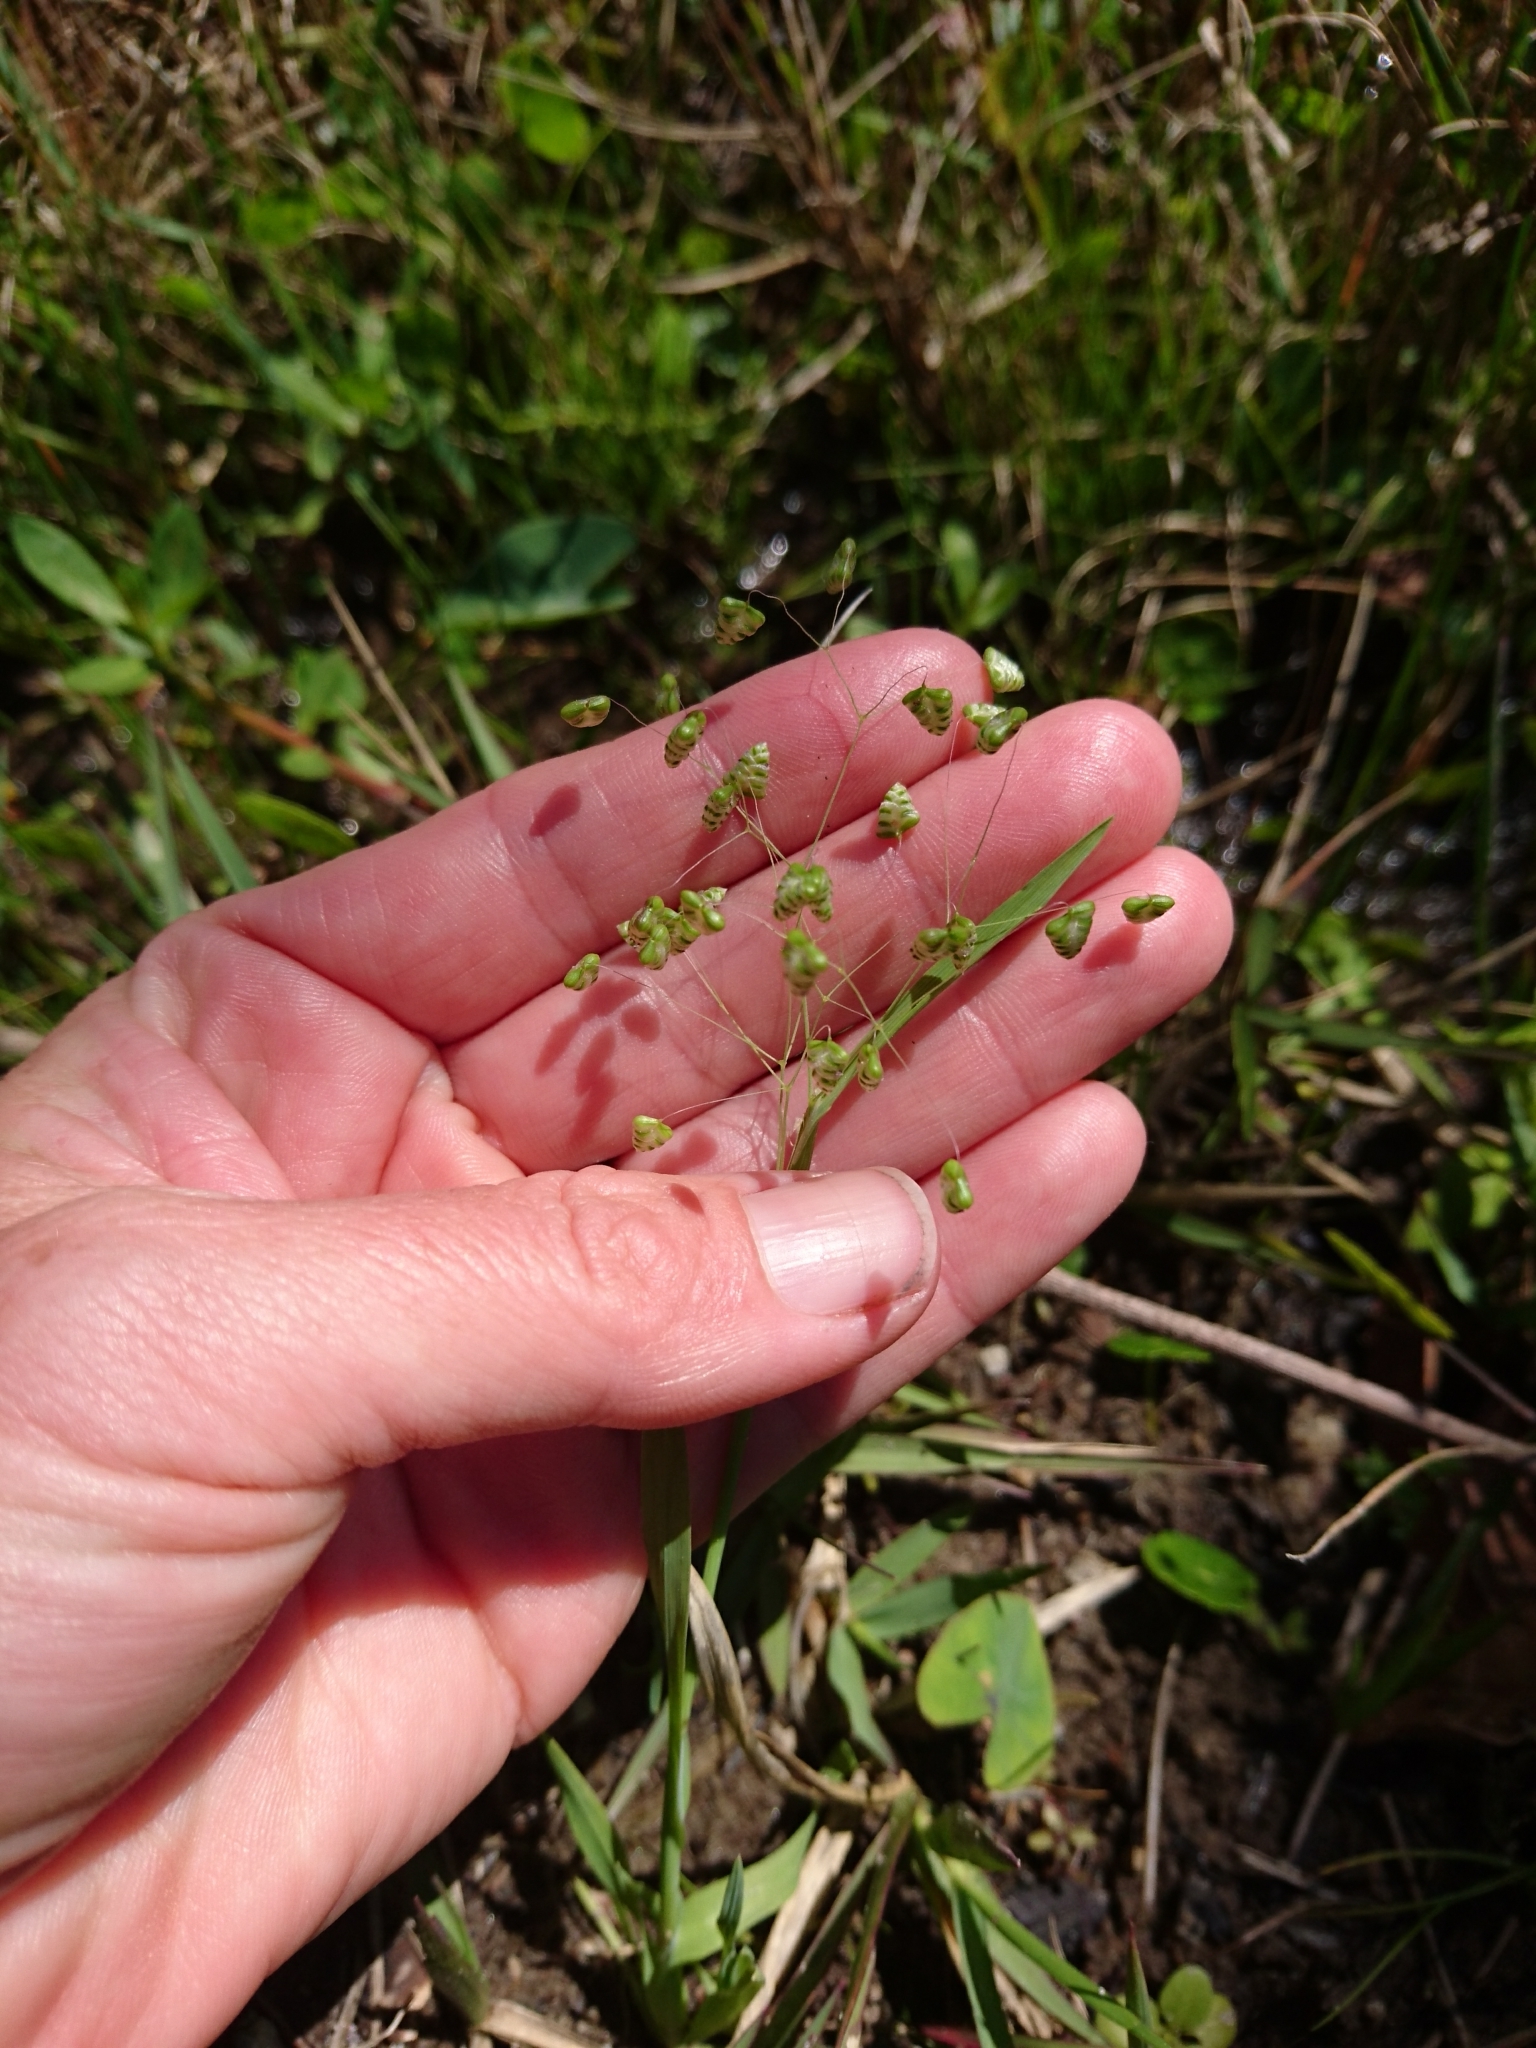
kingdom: Plantae
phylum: Tracheophyta
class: Liliopsida
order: Poales
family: Poaceae
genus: Briza
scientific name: Briza minor
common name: Lesser quaking-grass
